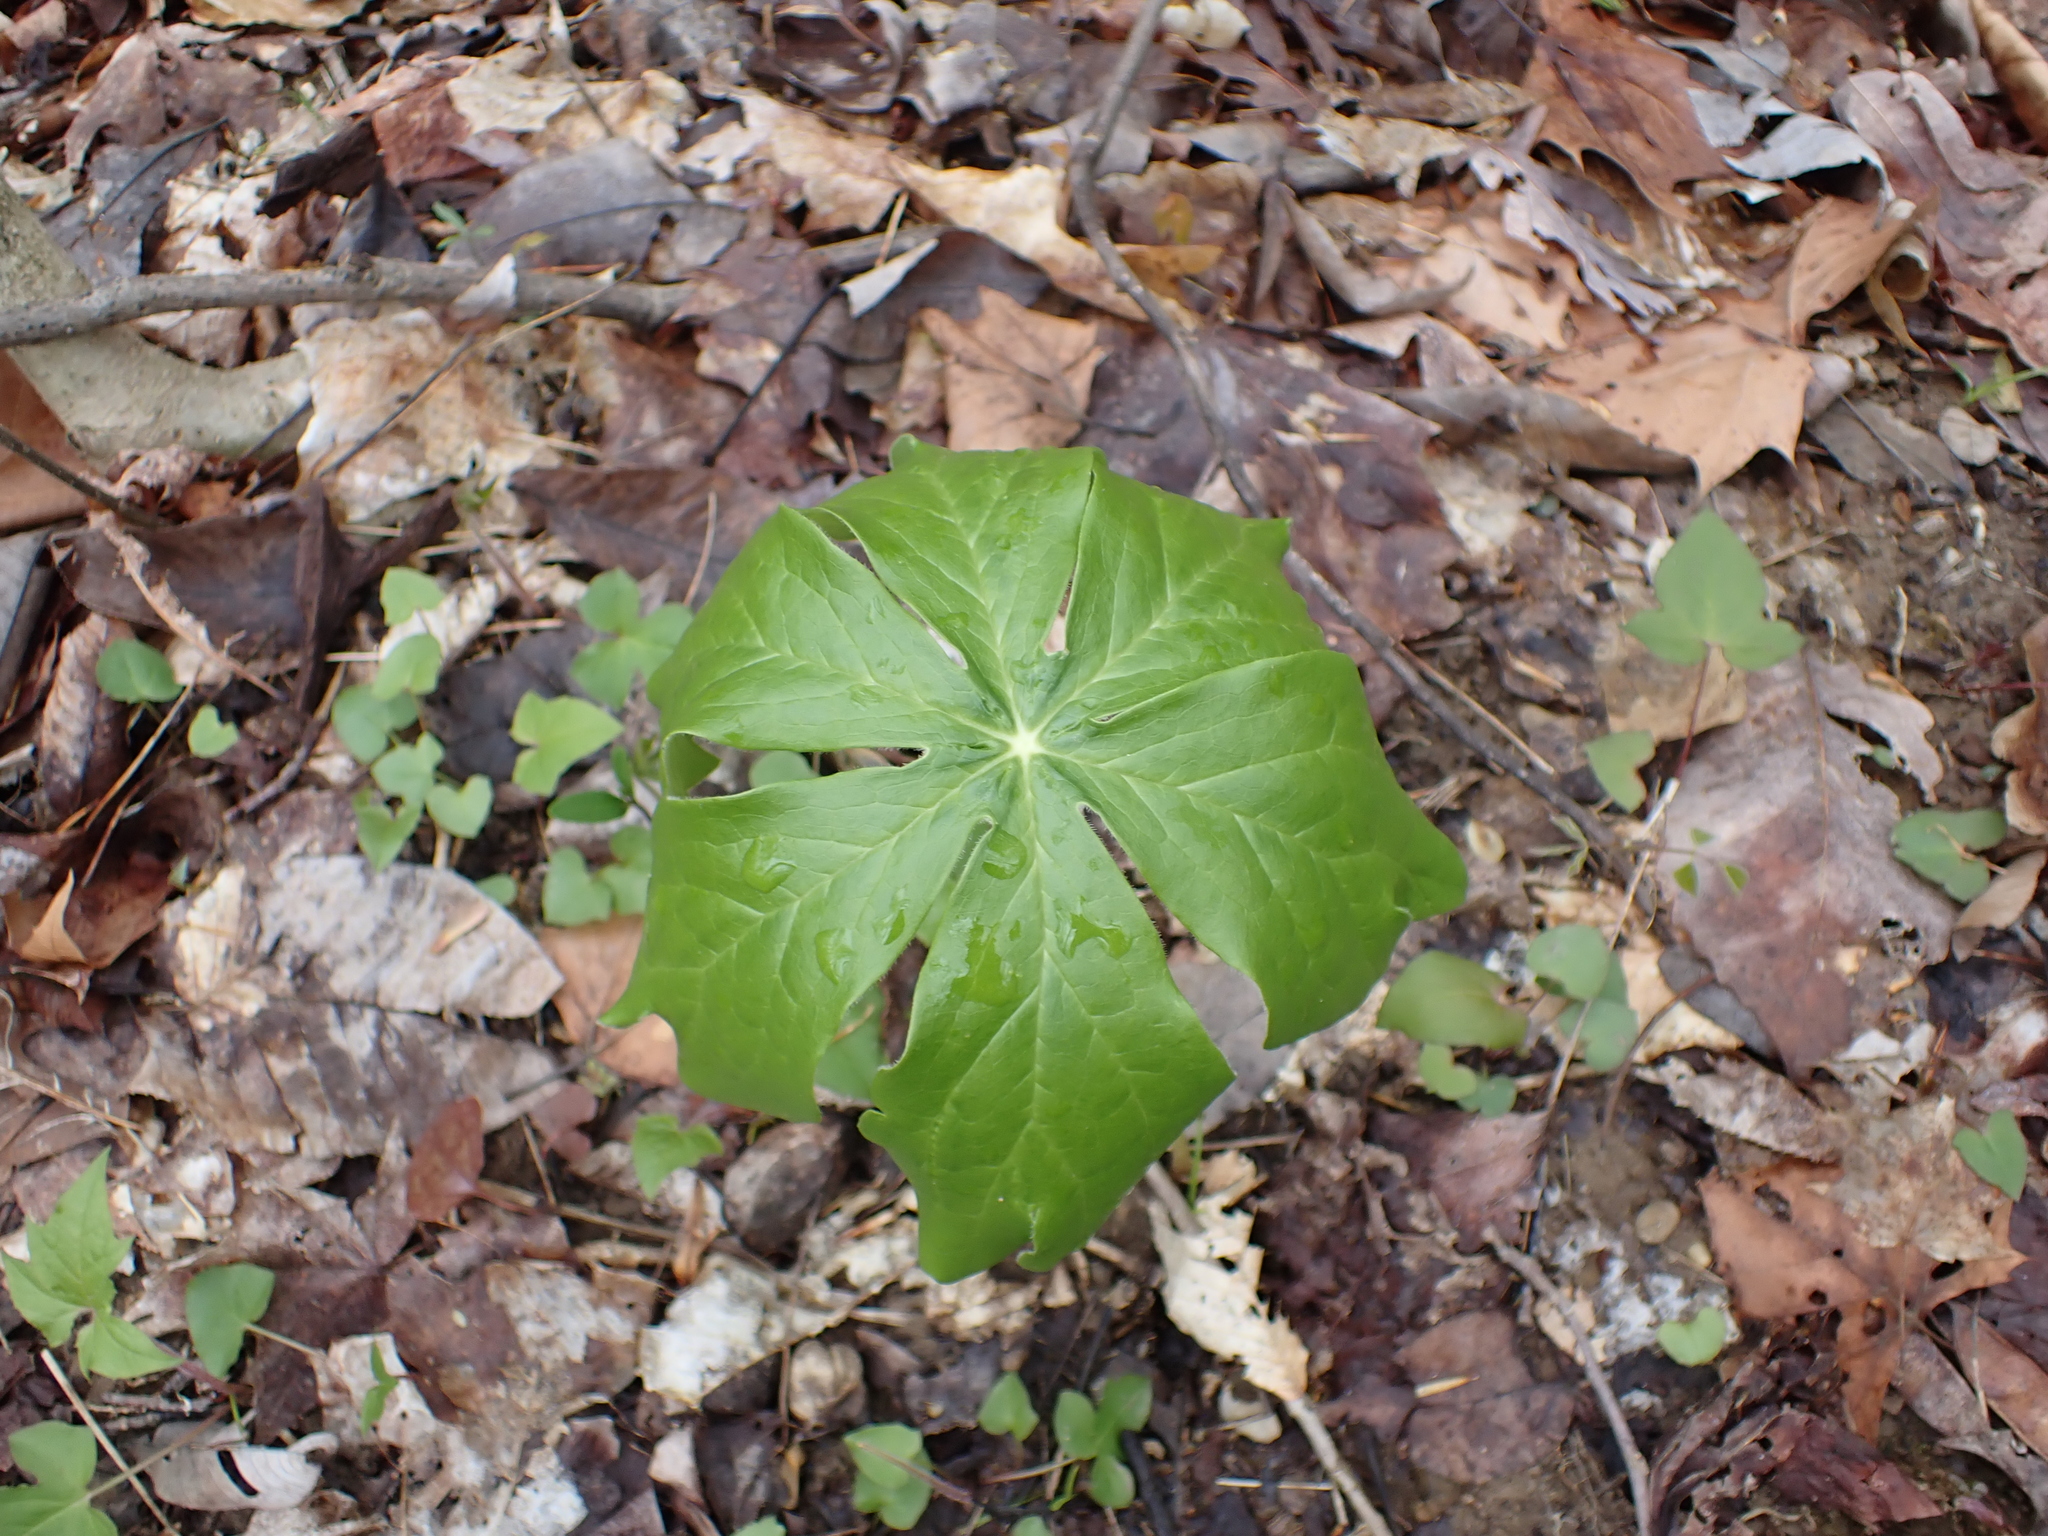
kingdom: Plantae
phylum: Tracheophyta
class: Magnoliopsida
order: Ranunculales
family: Berberidaceae
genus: Podophyllum
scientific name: Podophyllum peltatum
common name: Wild mandrake
